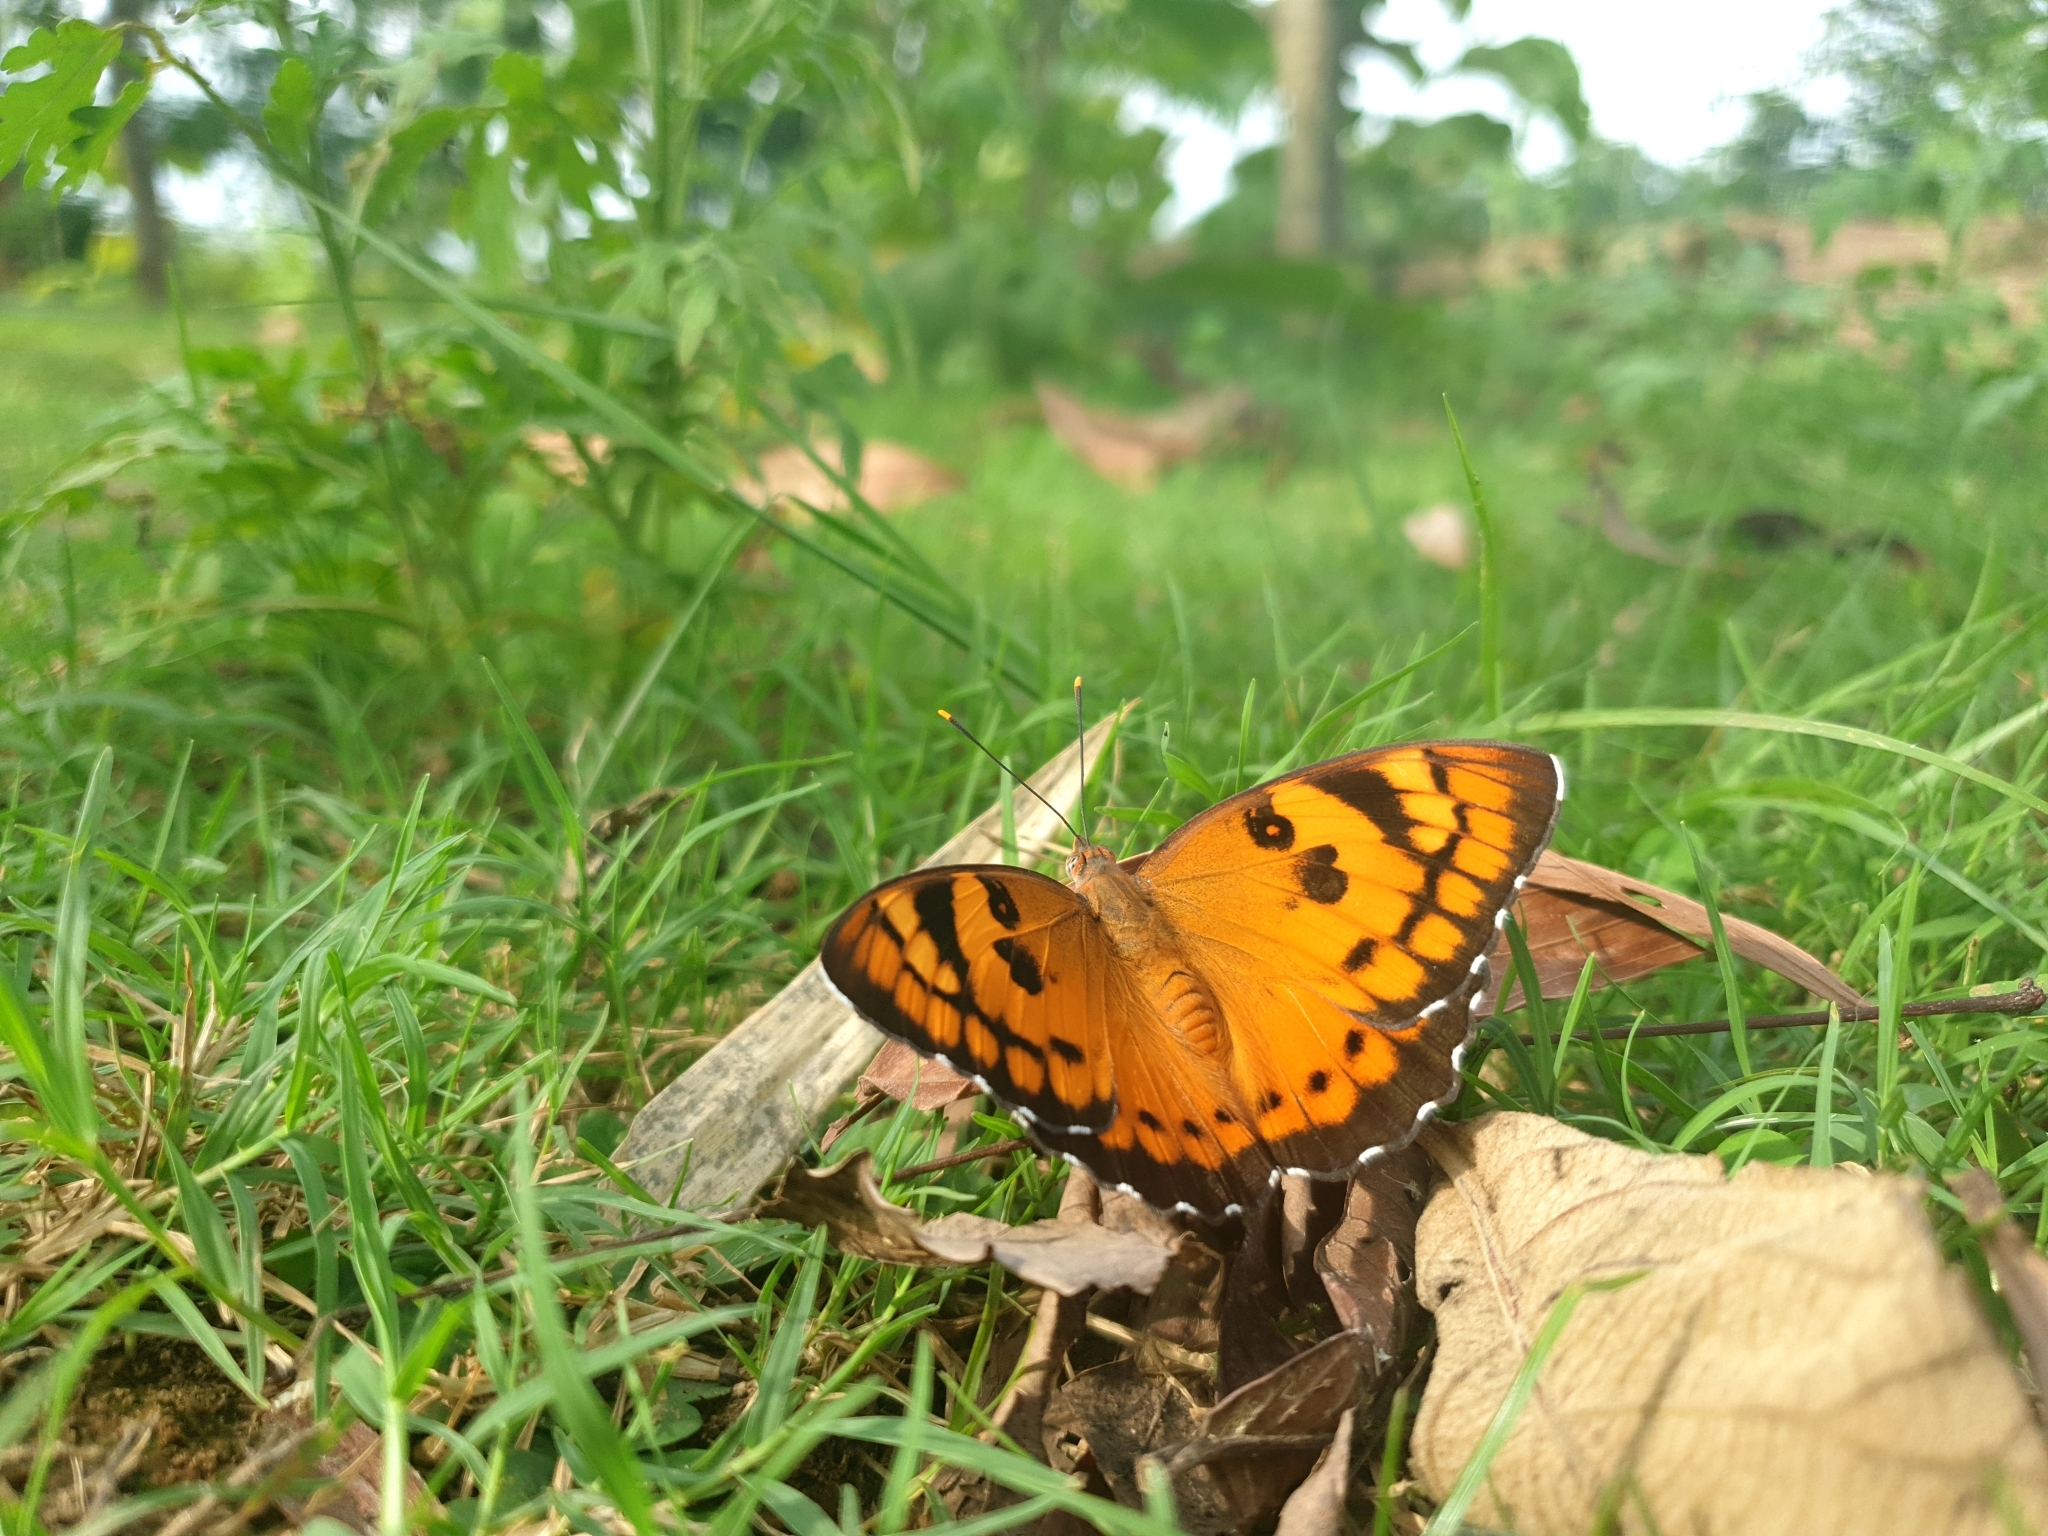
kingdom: Animalia
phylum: Arthropoda
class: Insecta
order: Lepidoptera
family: Nymphalidae
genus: Euthalia
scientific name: Euthalia nais
